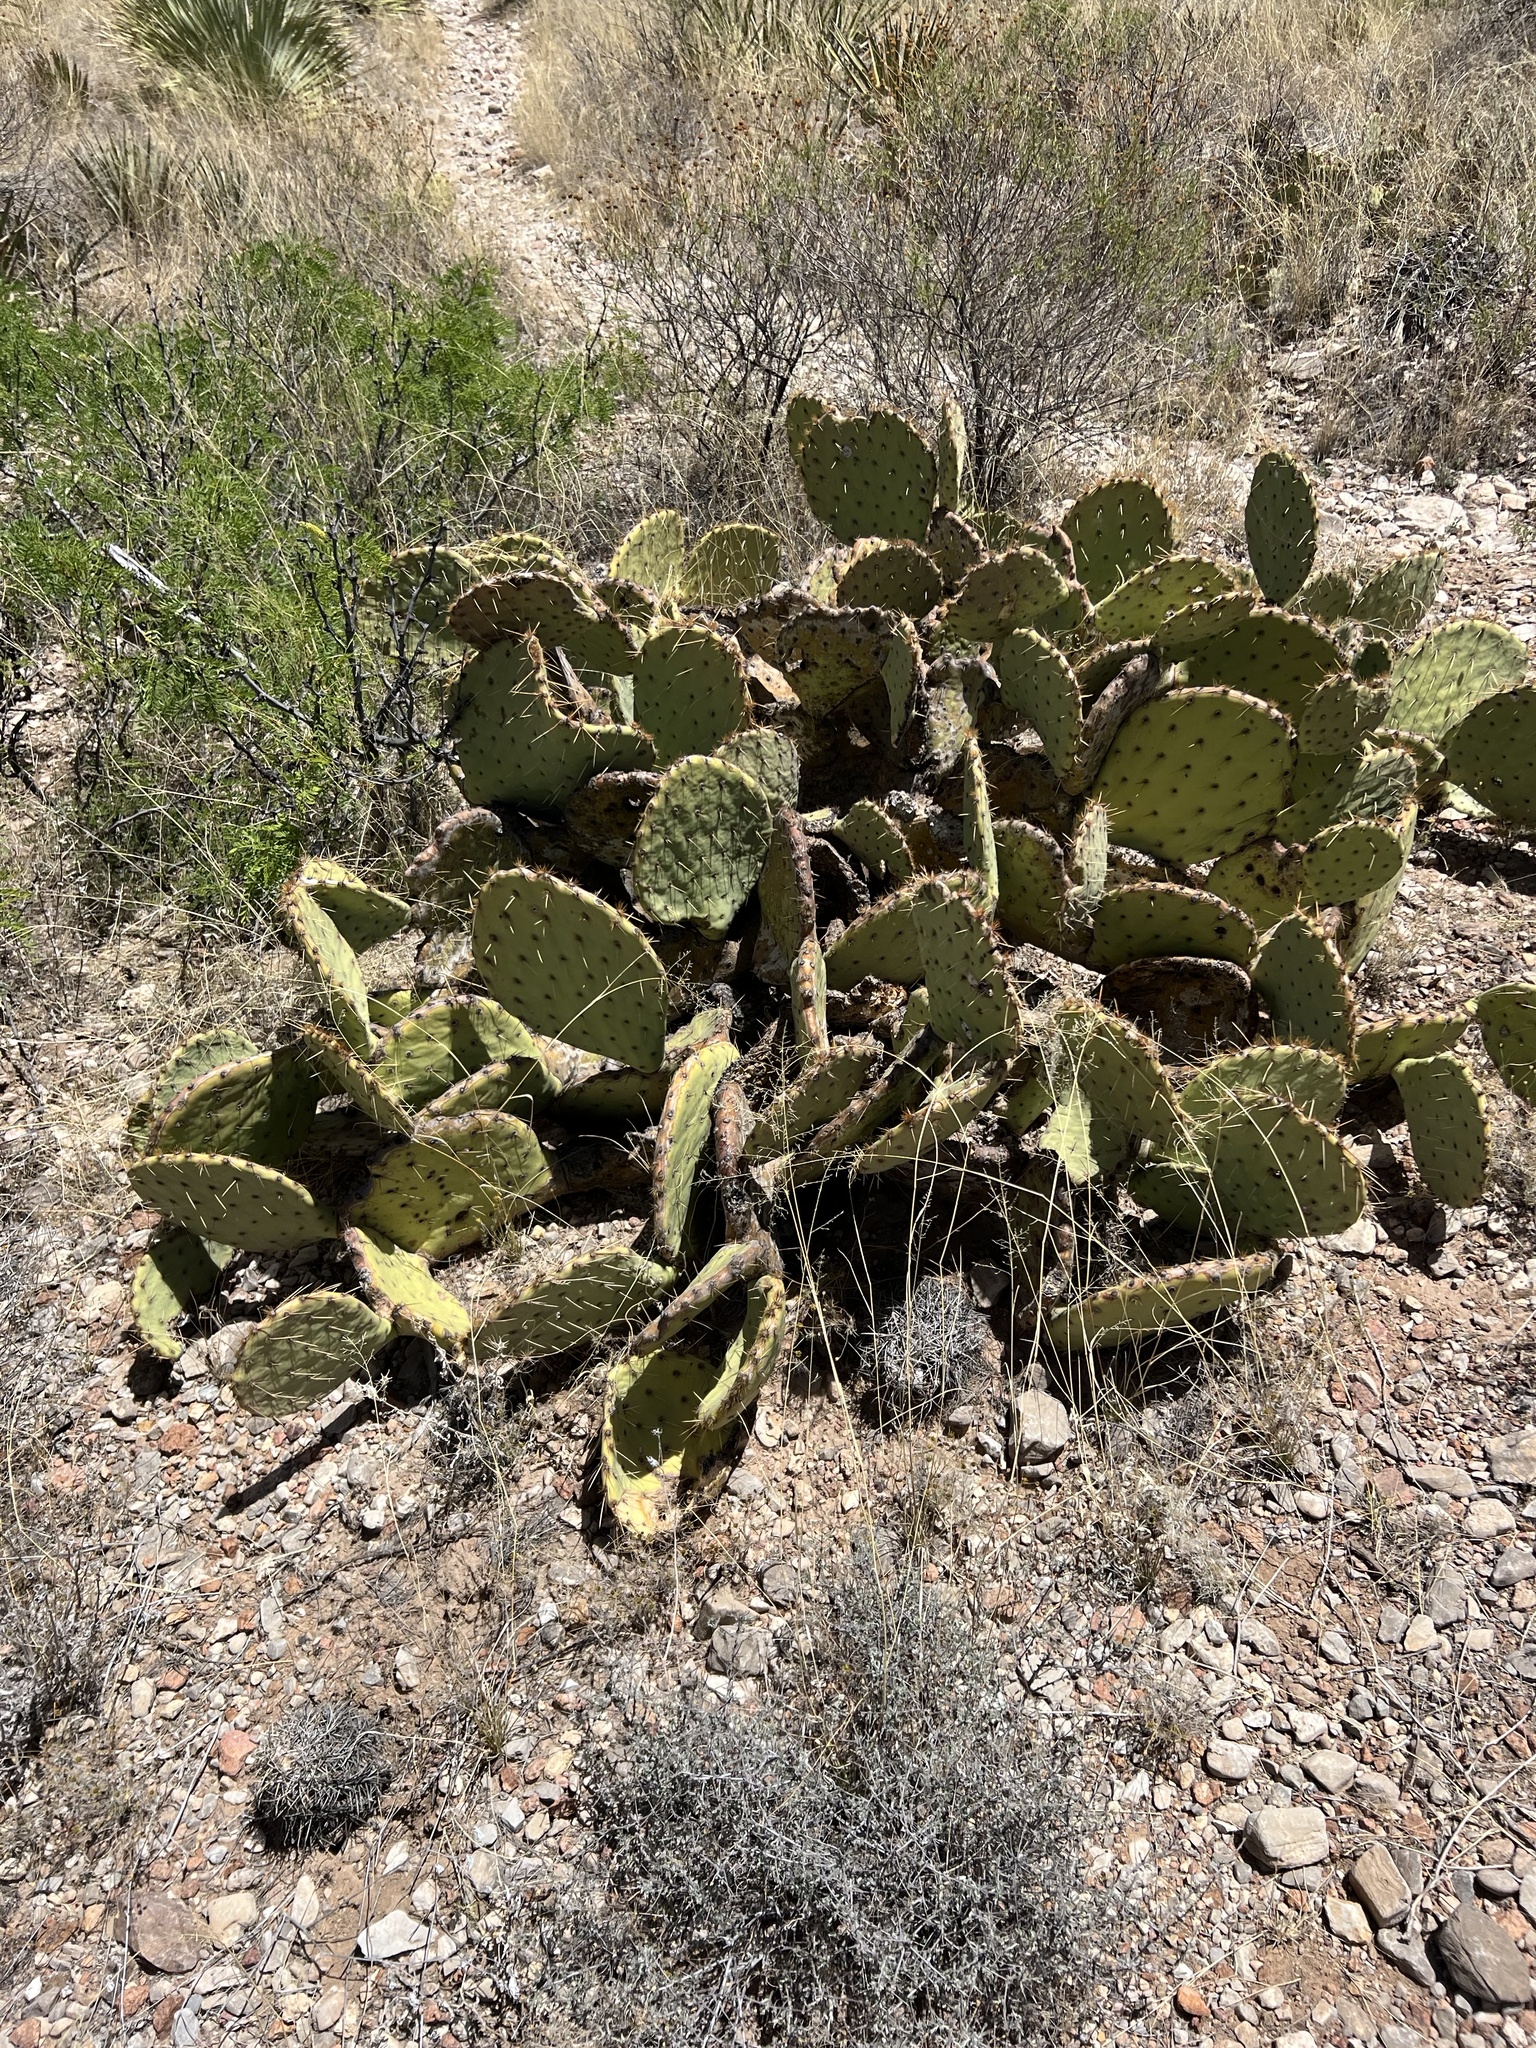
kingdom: Plantae
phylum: Tracheophyta
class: Magnoliopsida
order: Caryophyllales
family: Cactaceae
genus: Opuntia
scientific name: Opuntia orbiculata
